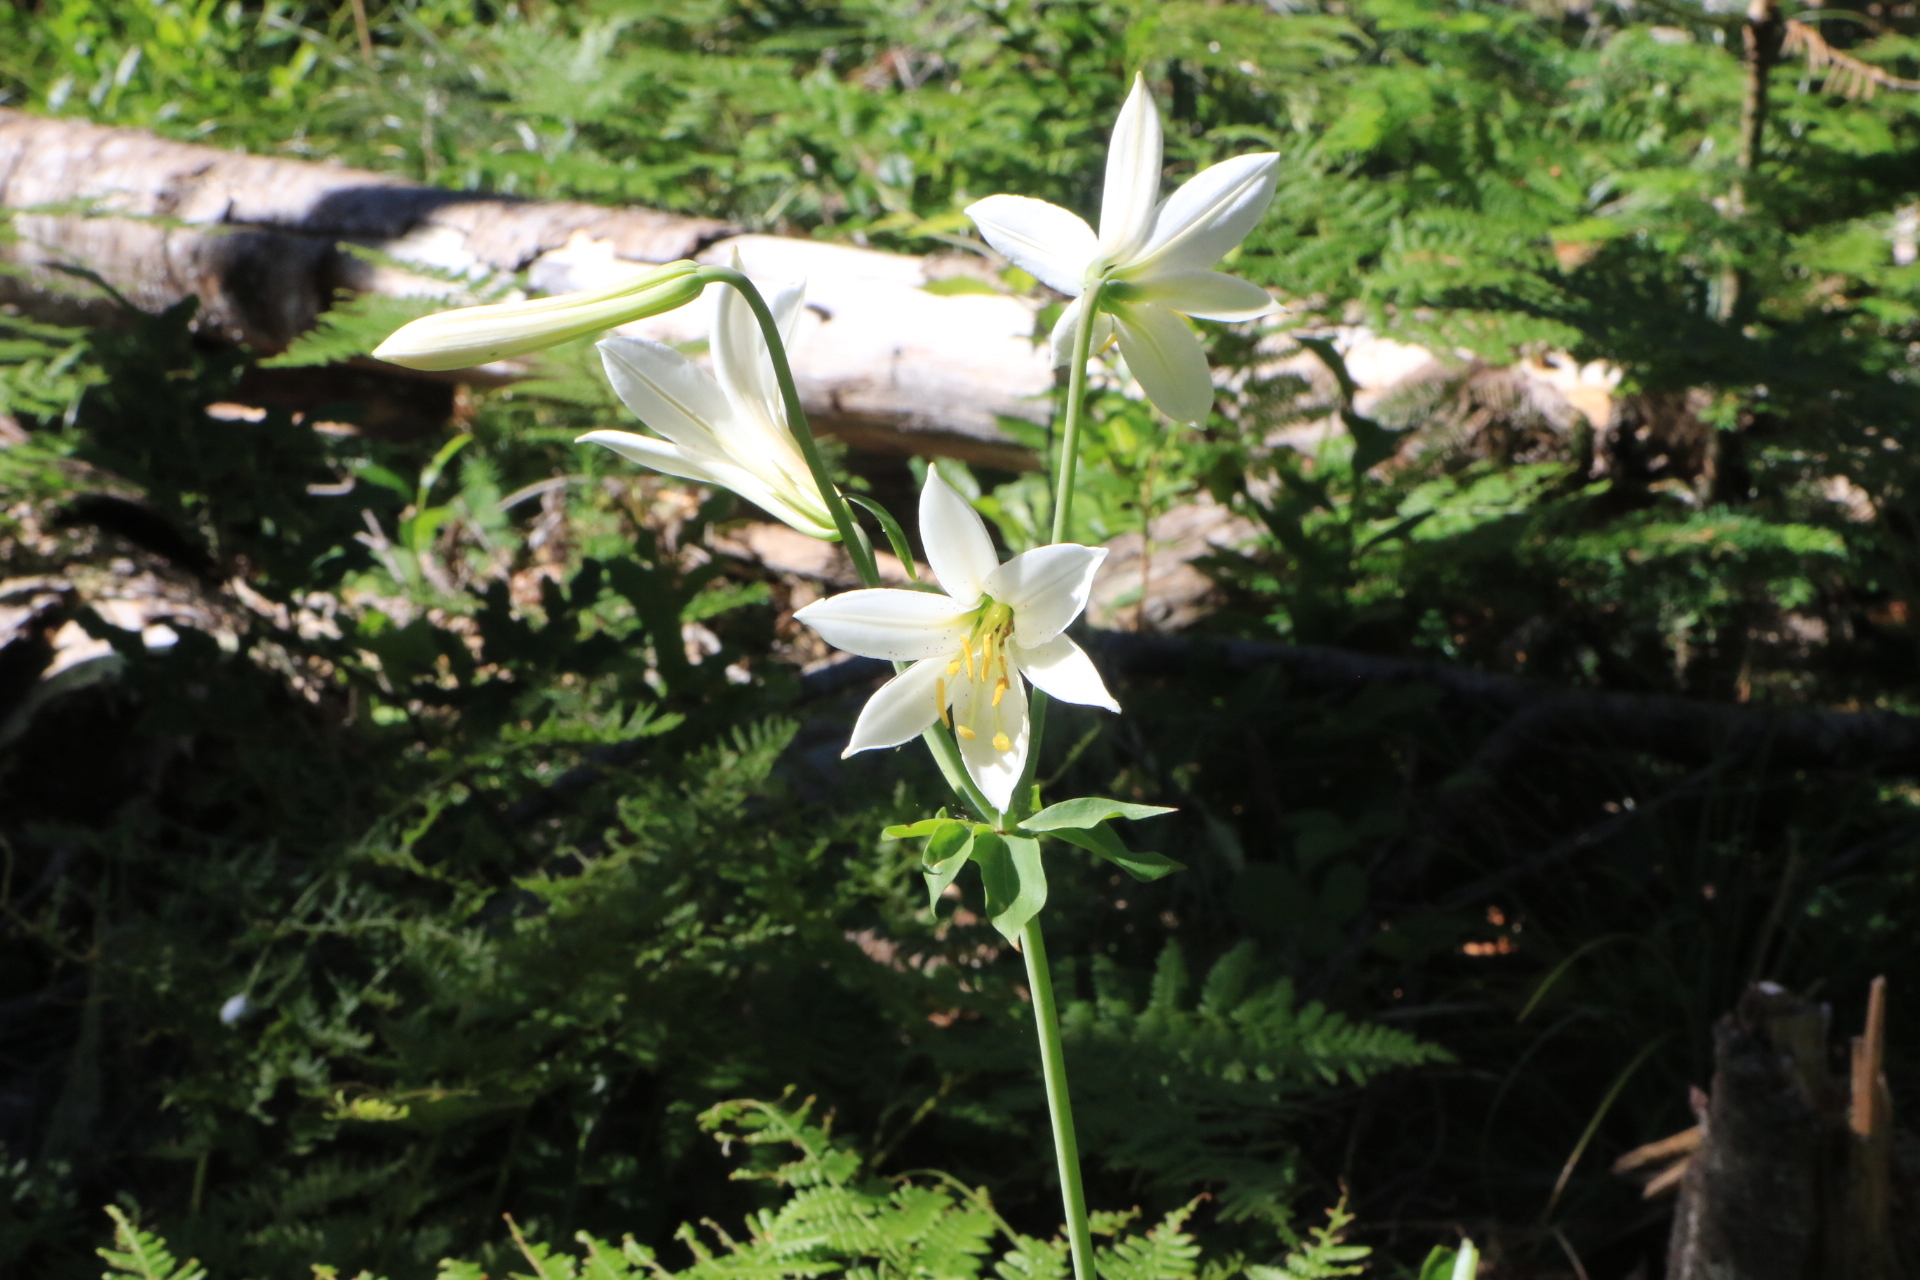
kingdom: Plantae
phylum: Tracheophyta
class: Liliopsida
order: Liliales
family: Liliaceae
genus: Lilium
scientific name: Lilium washingtonianum
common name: Washington lily
